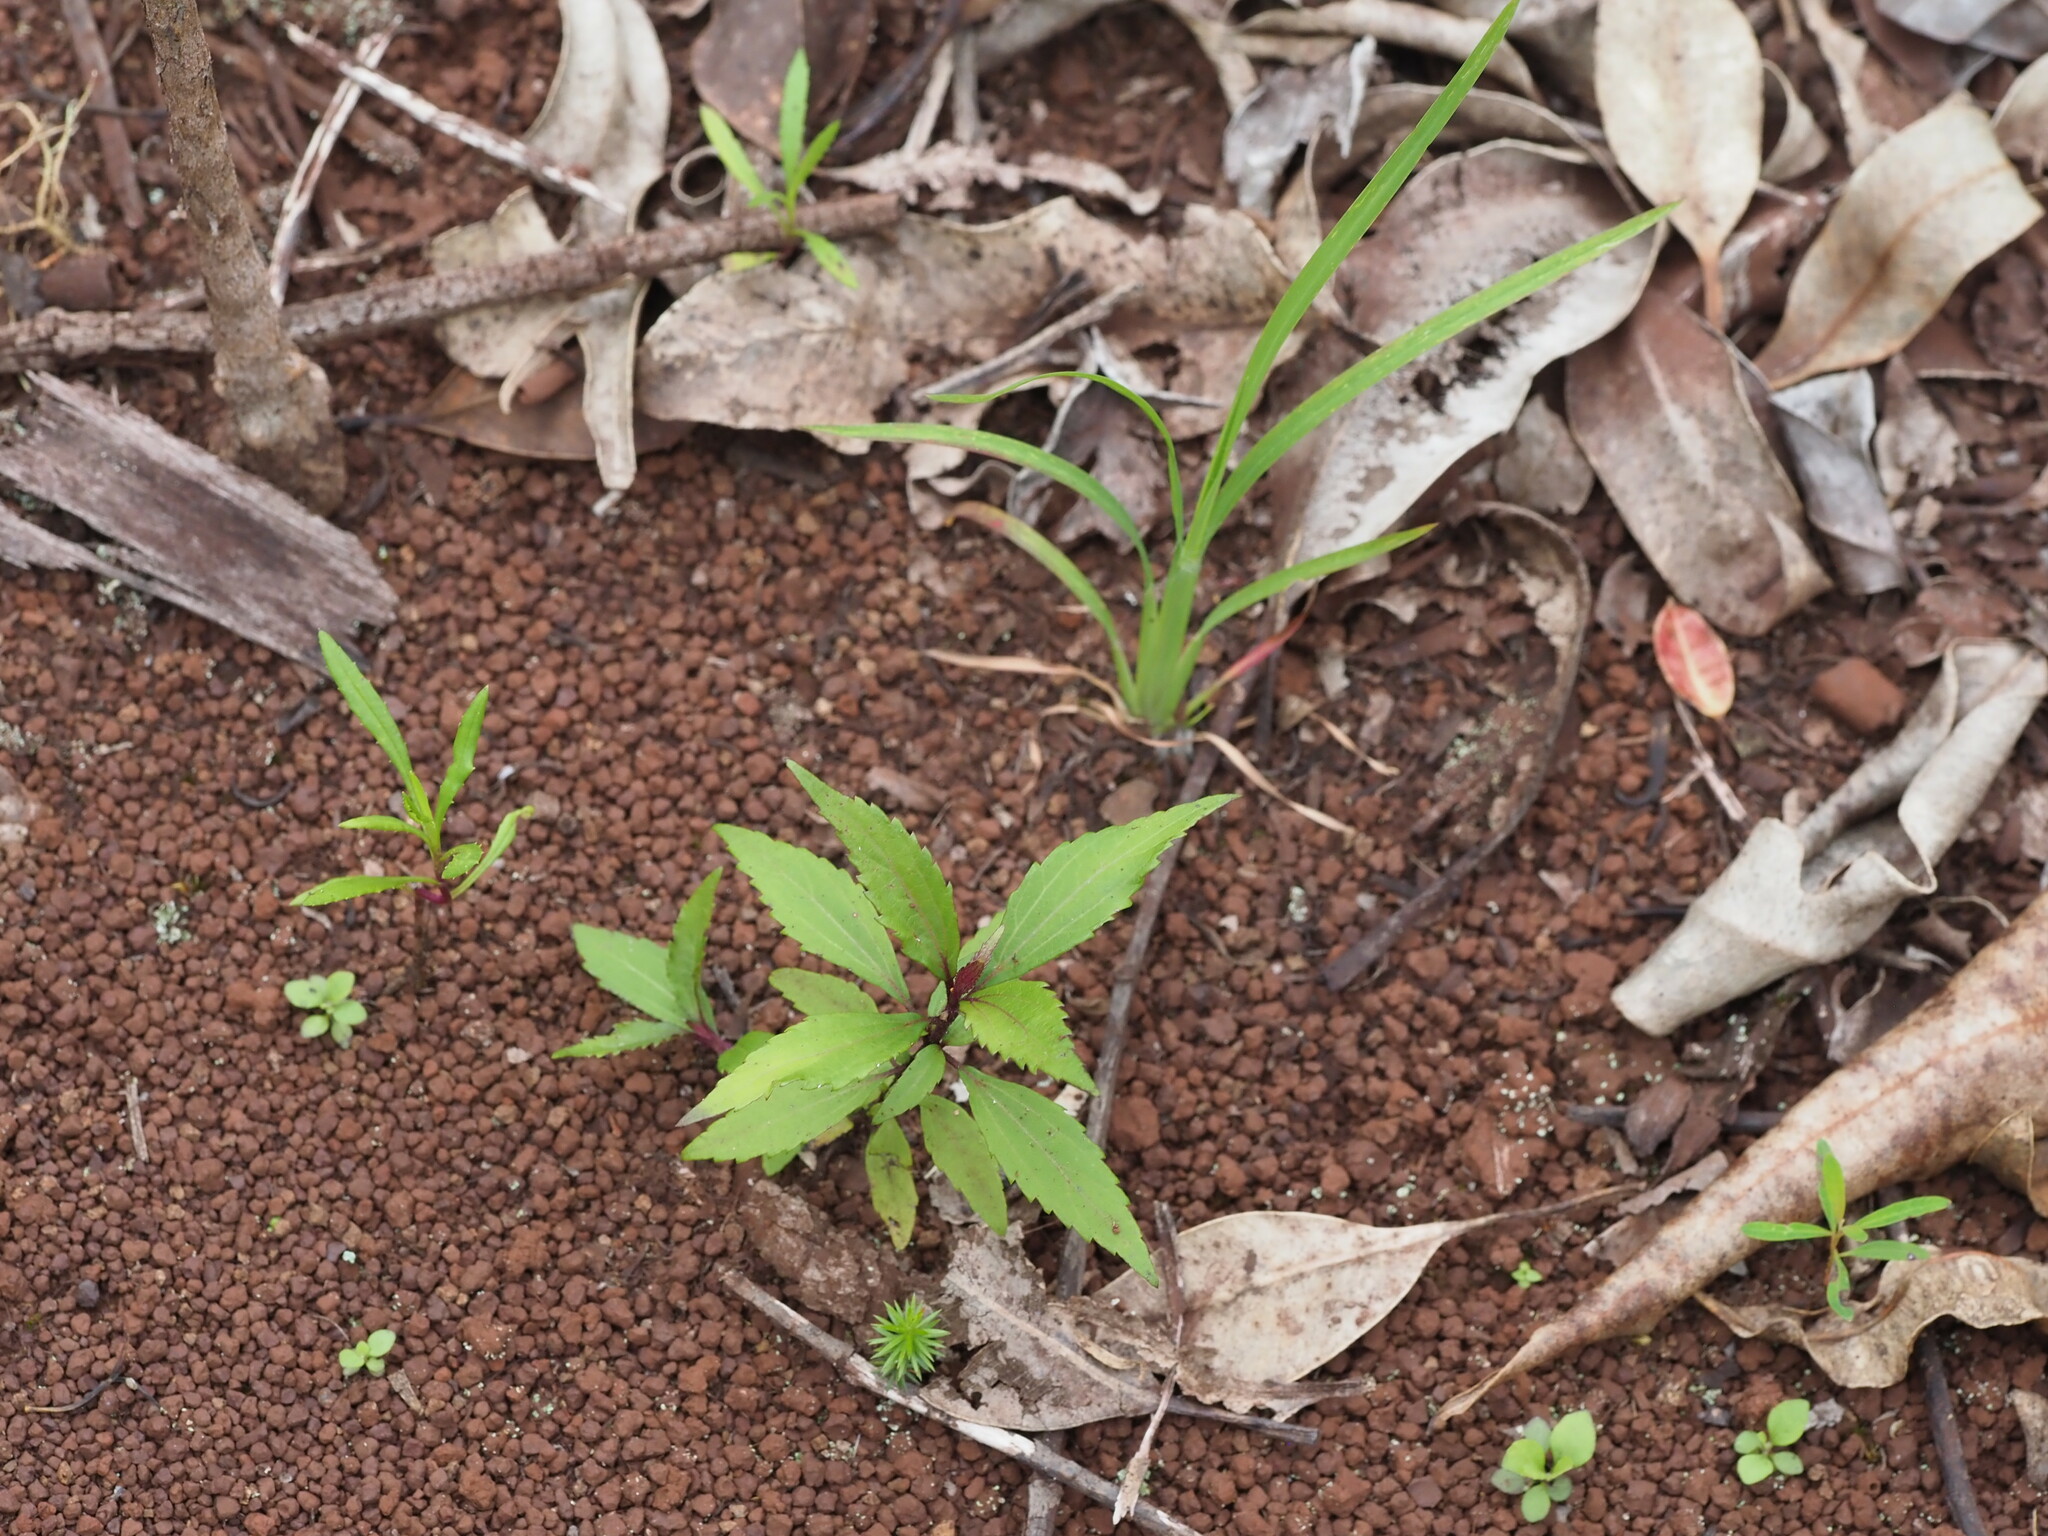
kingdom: Plantae
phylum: Tracheophyta
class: Magnoliopsida
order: Asterales
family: Asteraceae
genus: Ageratina
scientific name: Ageratina riparia
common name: Creeping croftonweed
